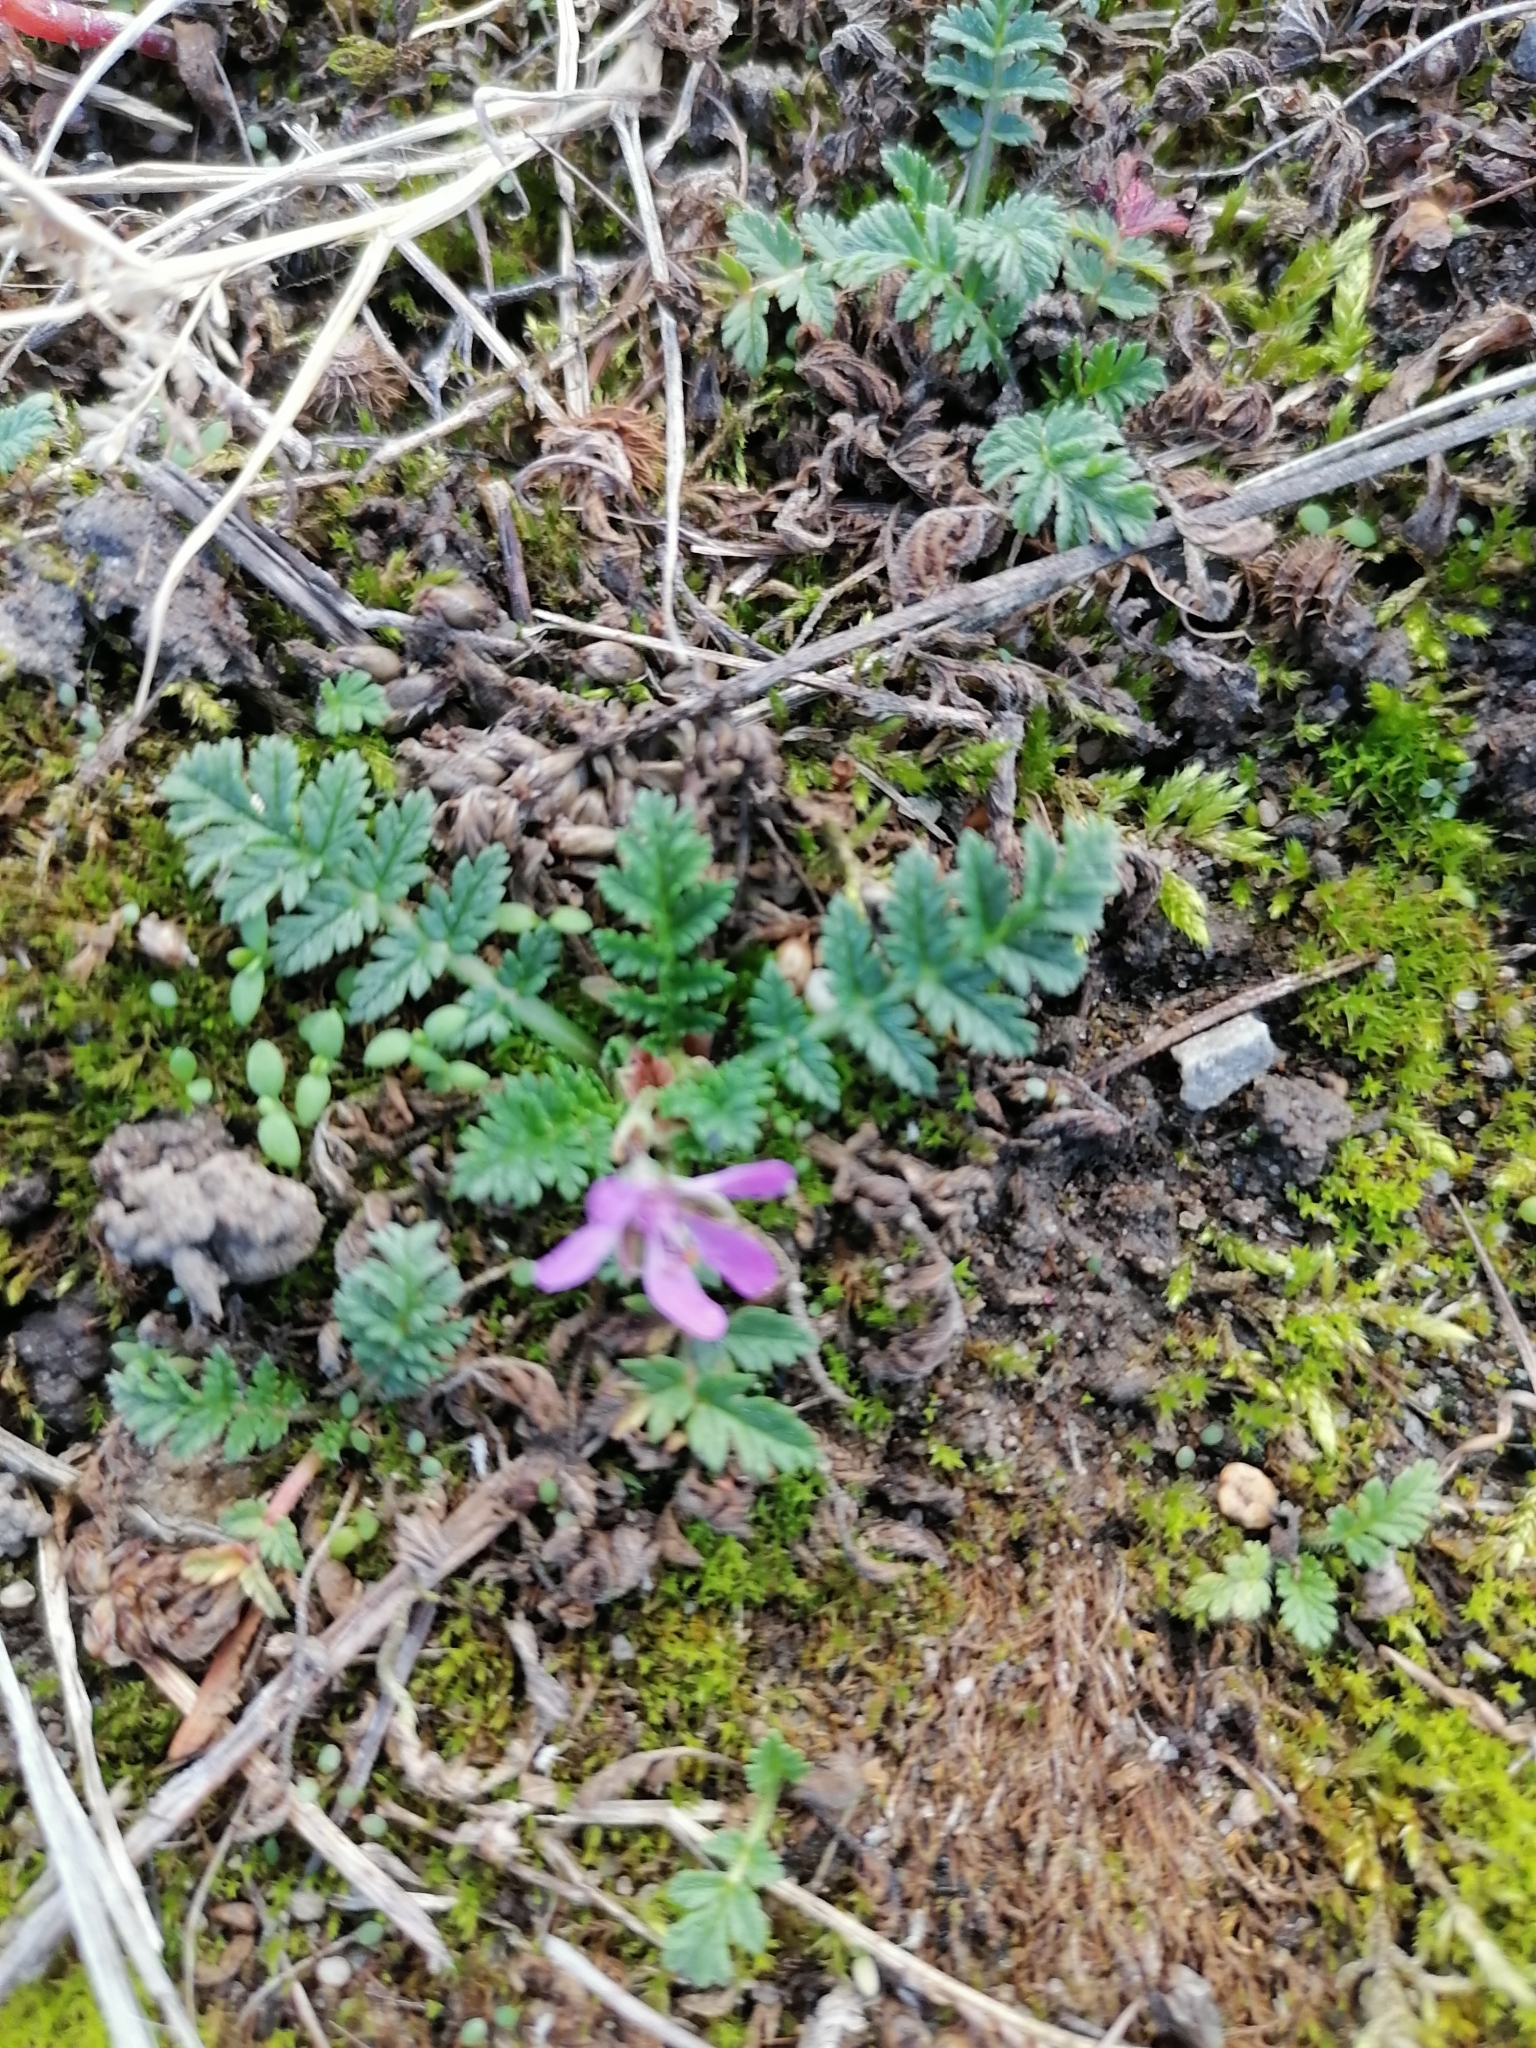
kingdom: Plantae
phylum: Tracheophyta
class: Magnoliopsida
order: Geraniales
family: Geraniaceae
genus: Erodium
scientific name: Erodium cicutarium
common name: Common stork's-bill
